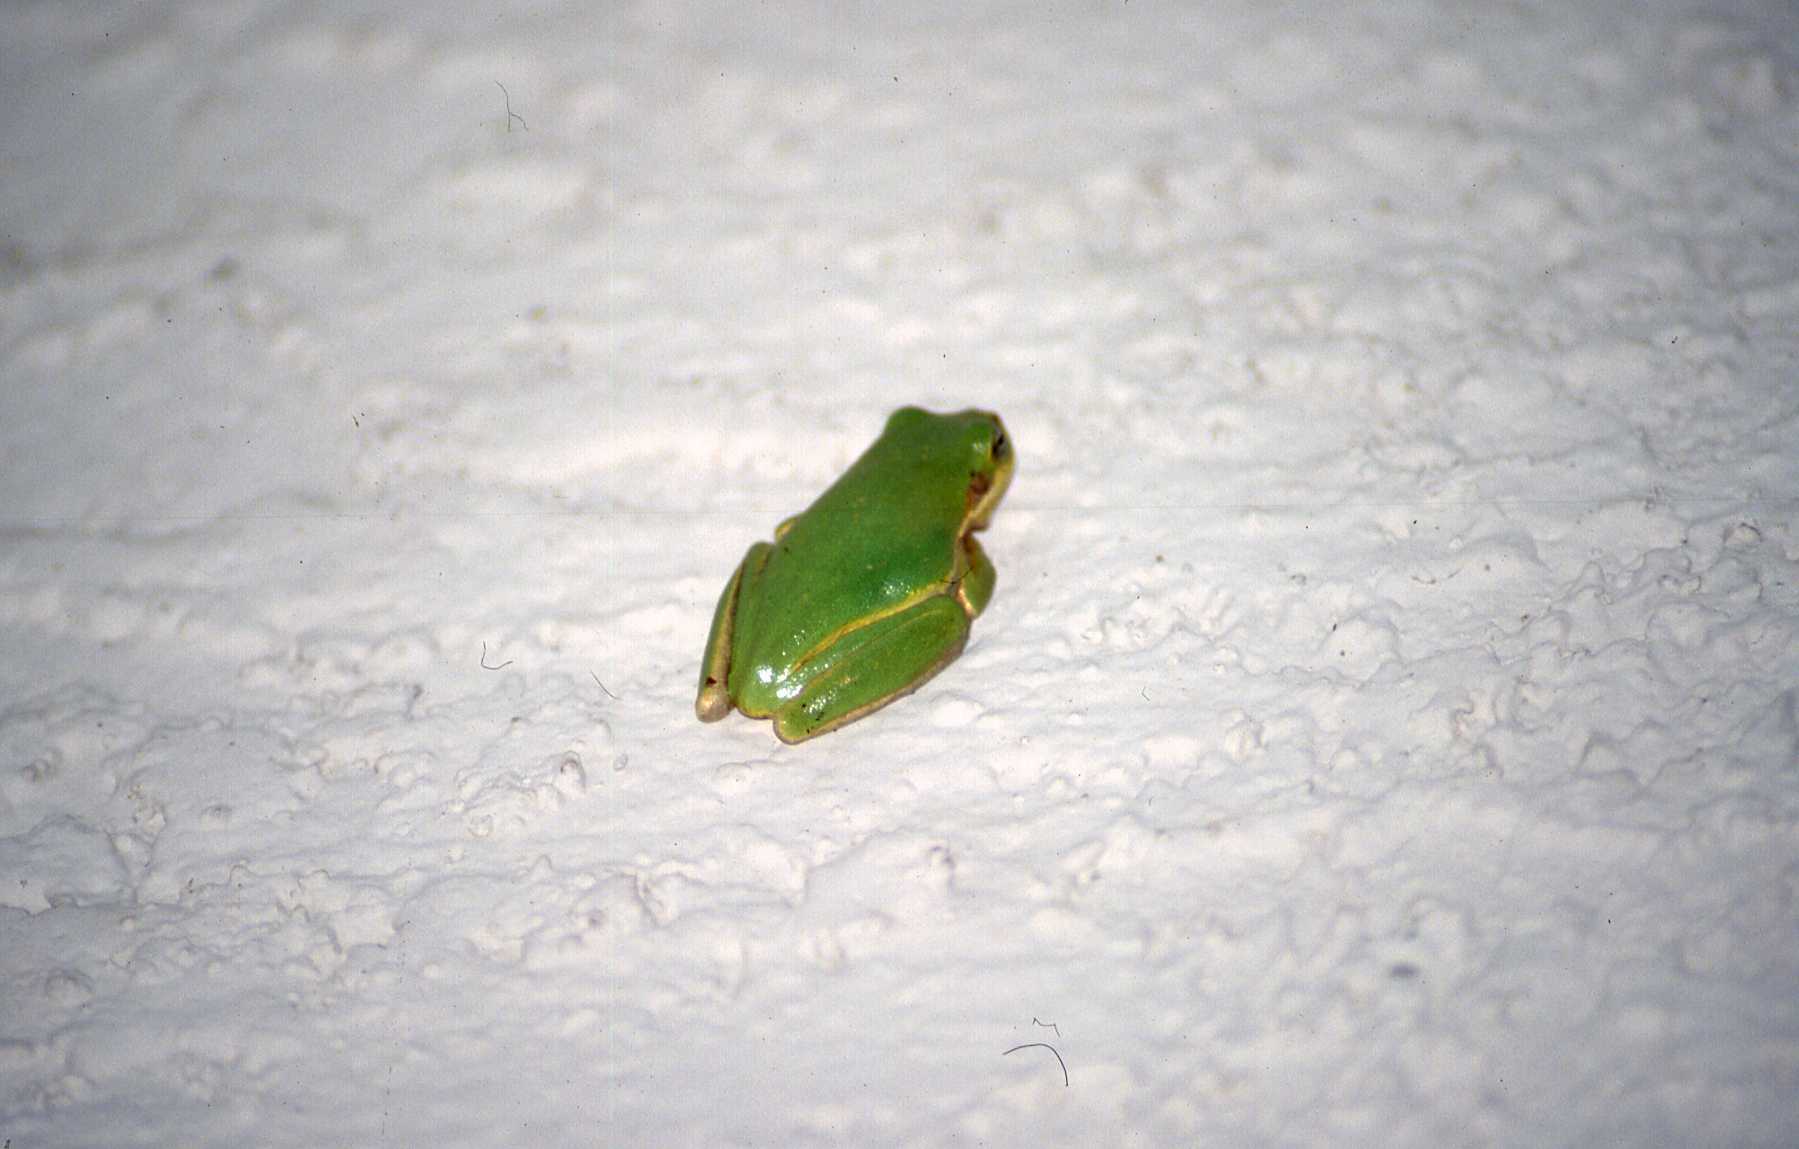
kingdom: Animalia
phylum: Chordata
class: Amphibia
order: Anura
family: Hylidae
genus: Dryophytes
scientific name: Dryophytes squirellus
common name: Squirrel treefrog
